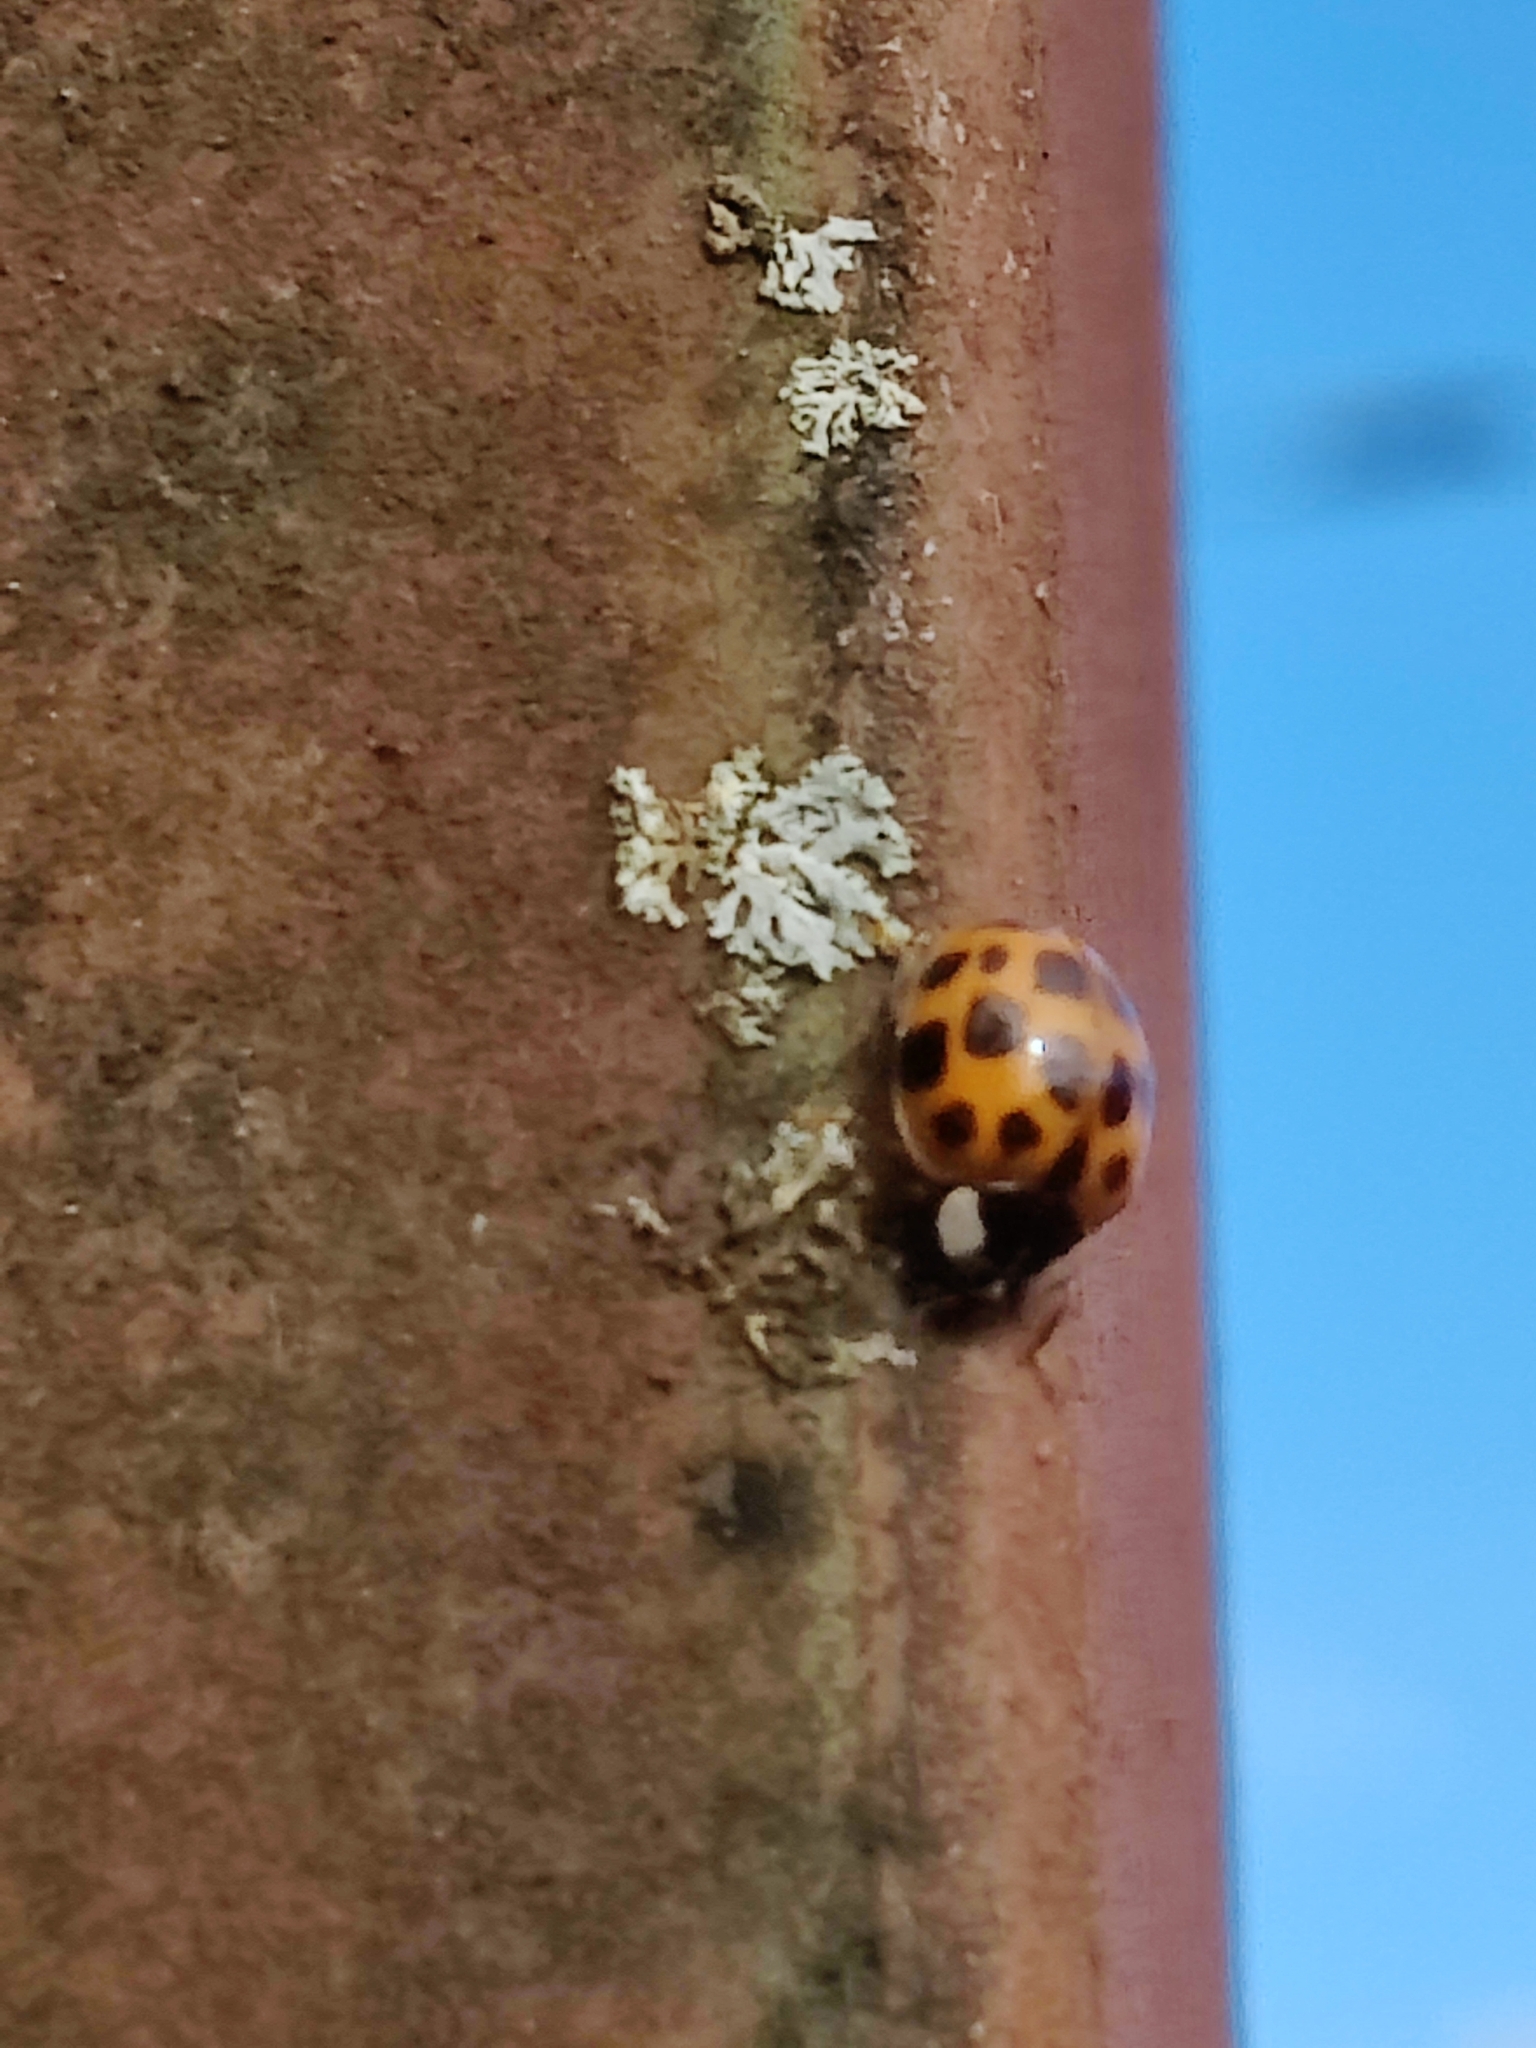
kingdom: Animalia
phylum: Arthropoda
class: Insecta
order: Coleoptera
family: Coccinellidae
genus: Harmonia
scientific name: Harmonia axyridis
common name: Harlequin ladybird
